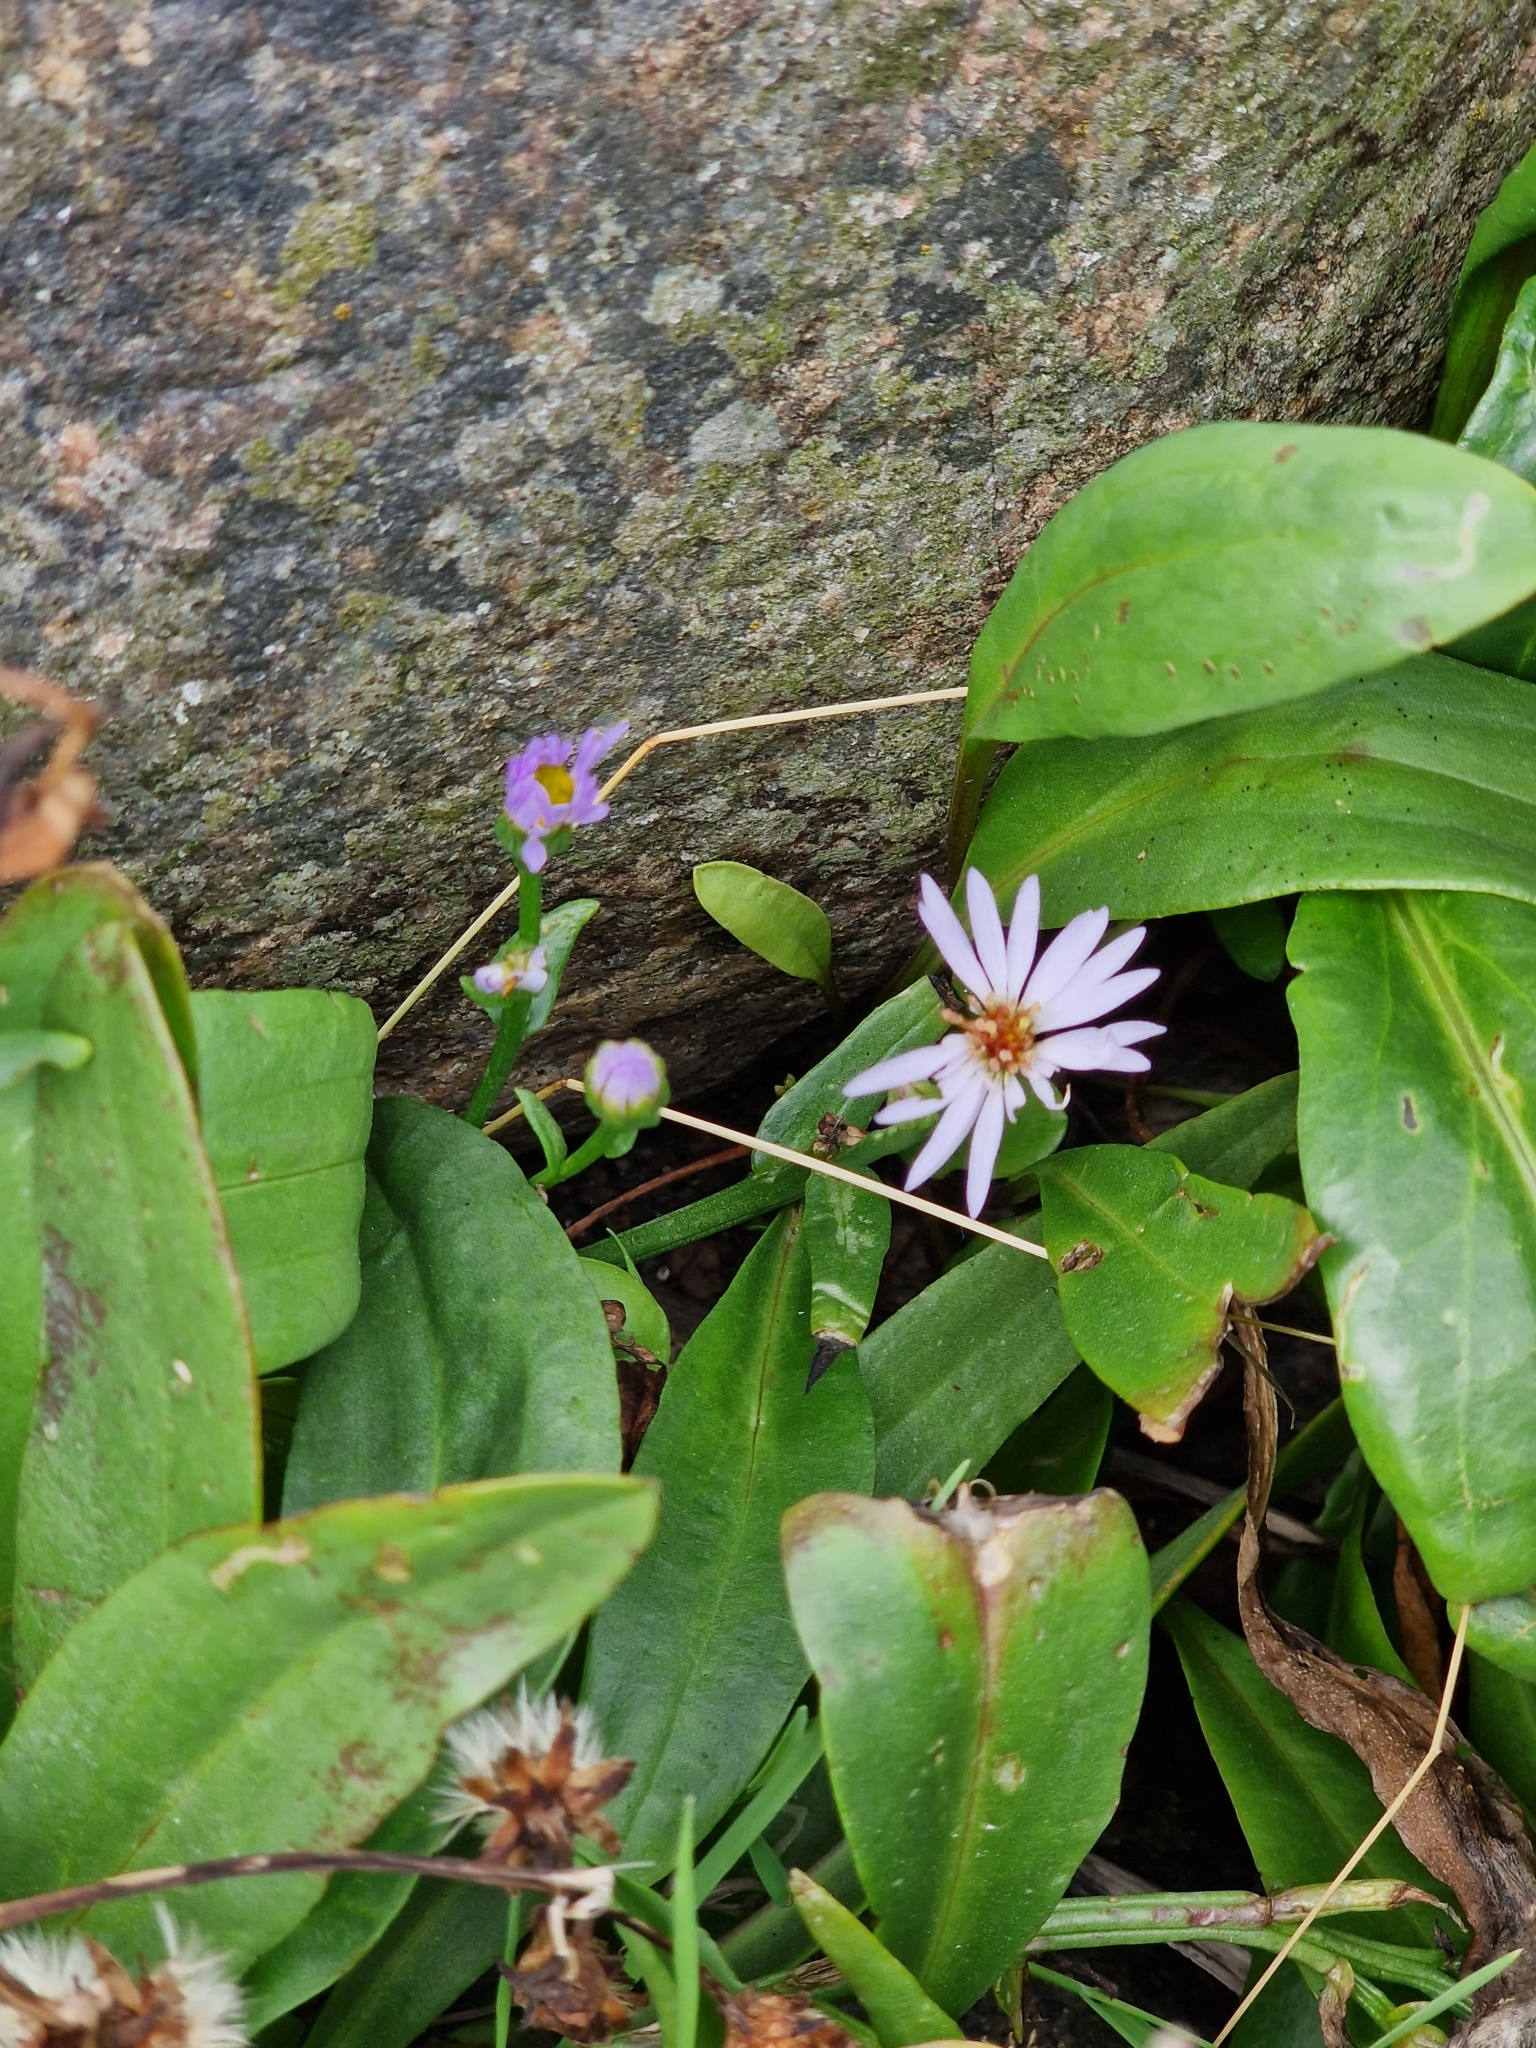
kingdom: Plantae
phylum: Tracheophyta
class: Magnoliopsida
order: Asterales
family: Asteraceae
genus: Tripolium
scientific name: Tripolium pannonicum
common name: Sea aster
